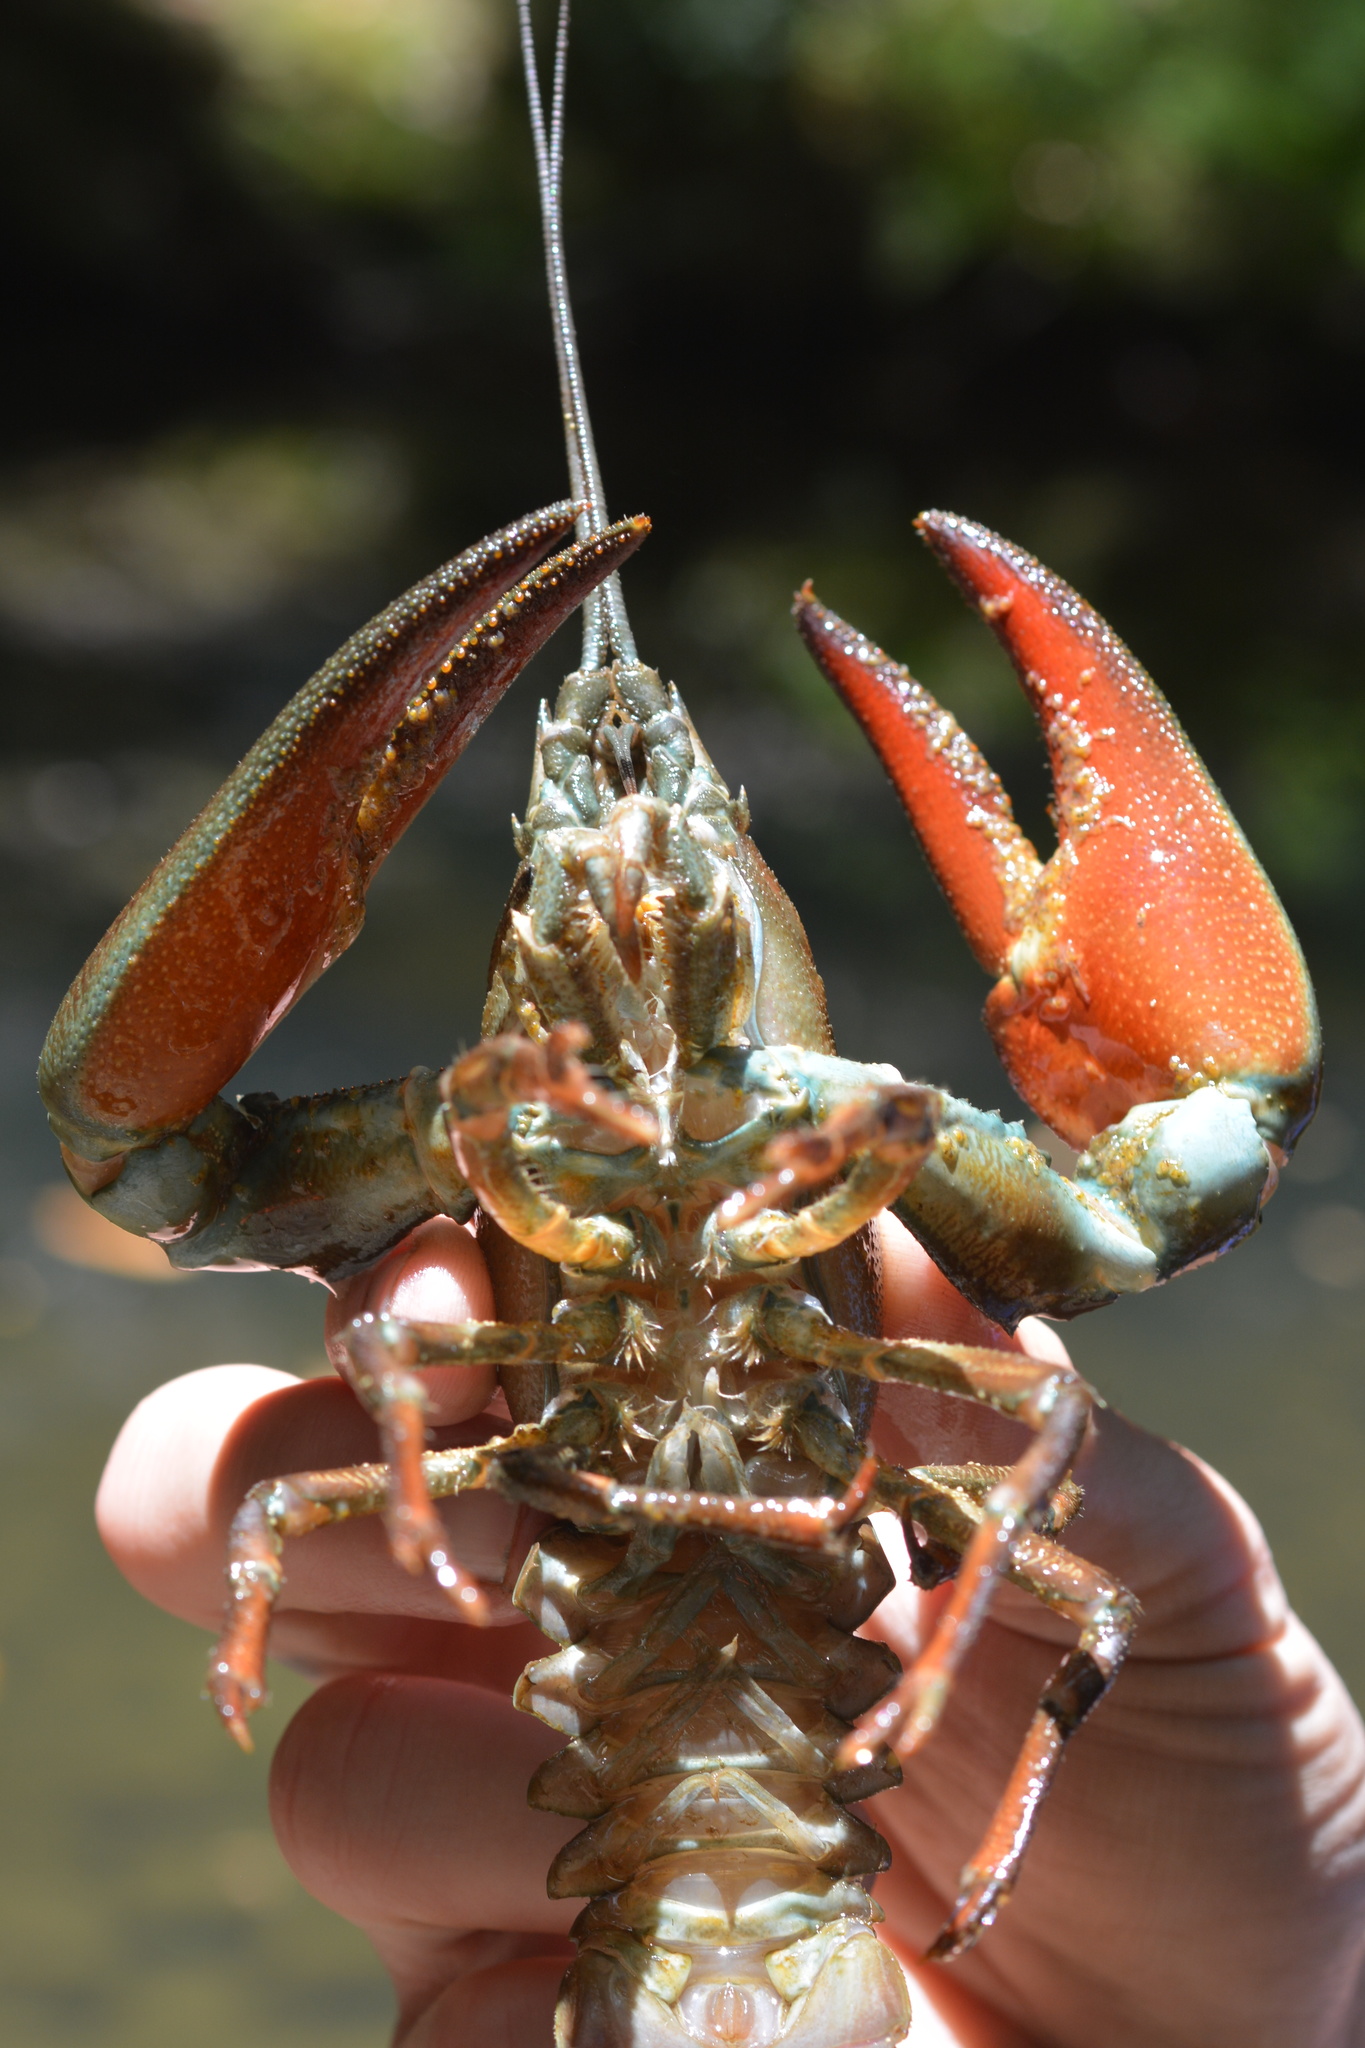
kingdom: Animalia
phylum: Arthropoda
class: Malacostraca
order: Decapoda
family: Astacidae
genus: Pacifastacus
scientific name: Pacifastacus leniusculus
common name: Signal crayfish
